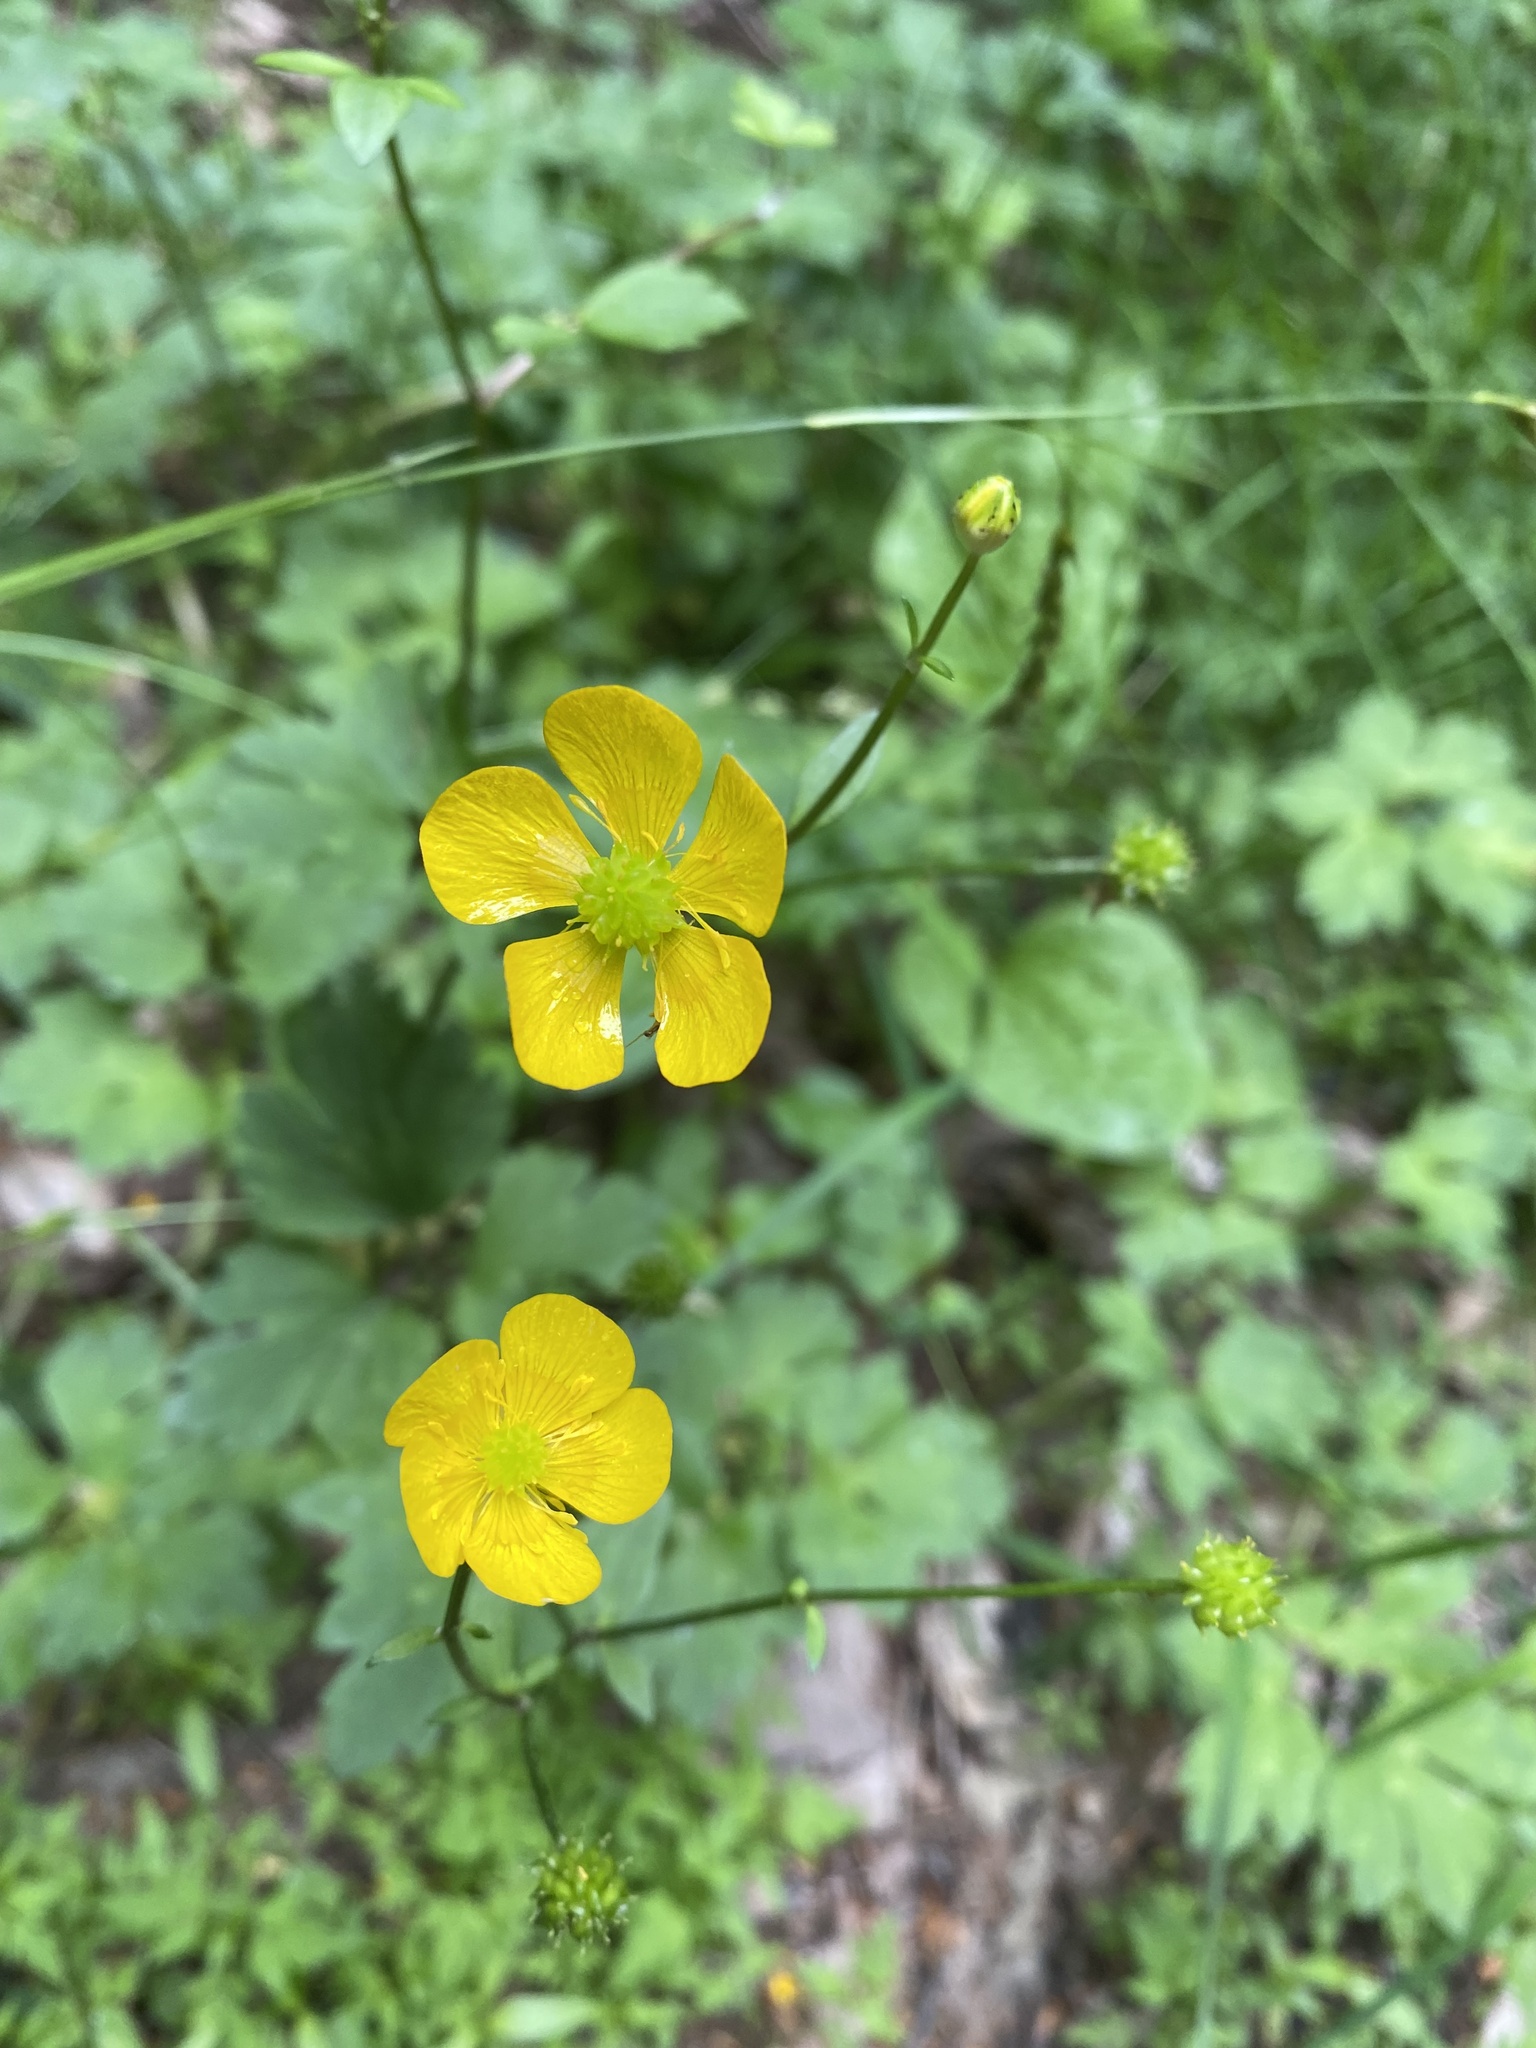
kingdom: Plantae
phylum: Tracheophyta
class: Magnoliopsida
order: Ranunculales
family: Ranunculaceae
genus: Ranunculus
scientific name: Ranunculus repens
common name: Creeping buttercup
